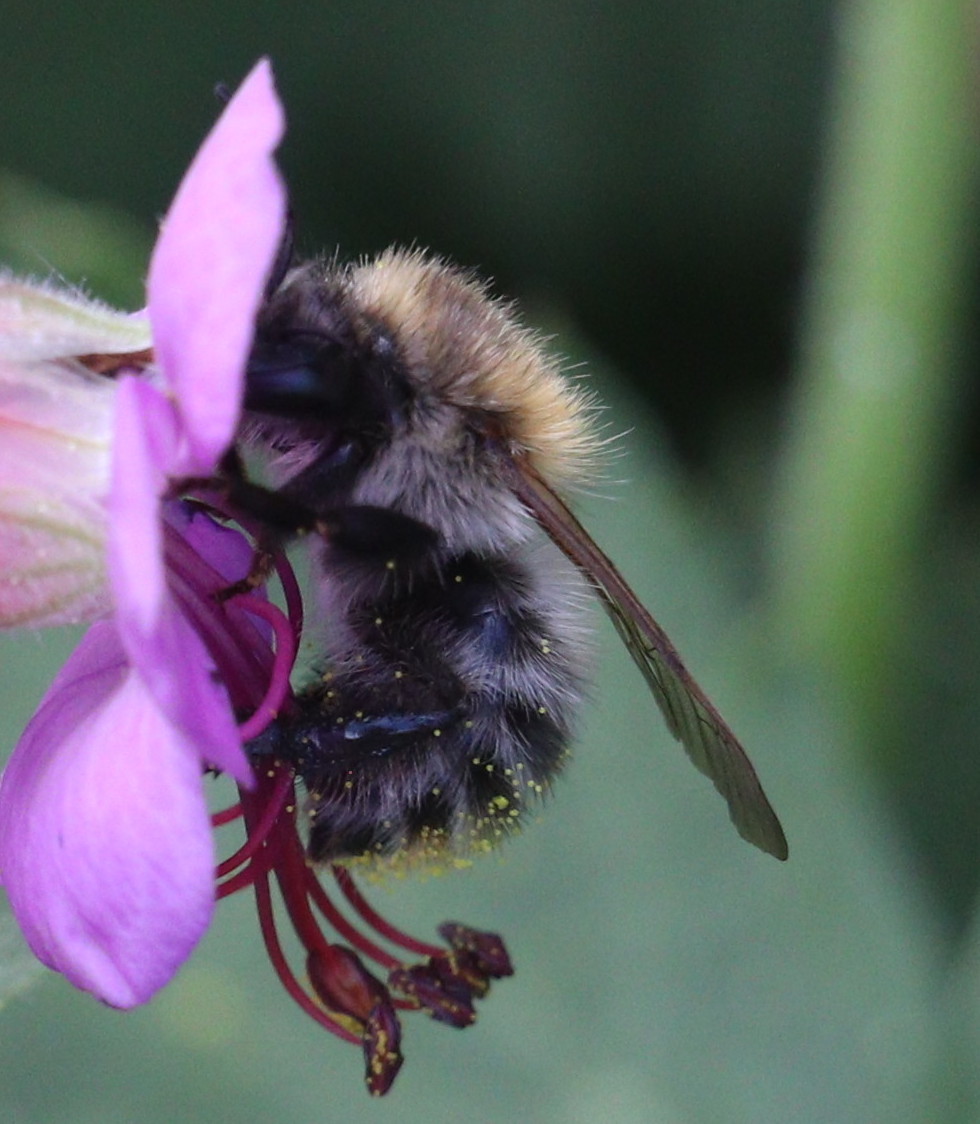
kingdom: Animalia
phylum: Arthropoda
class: Insecta
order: Hymenoptera
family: Apidae
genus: Bombus
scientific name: Bombus pascuorum
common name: Common carder bee
